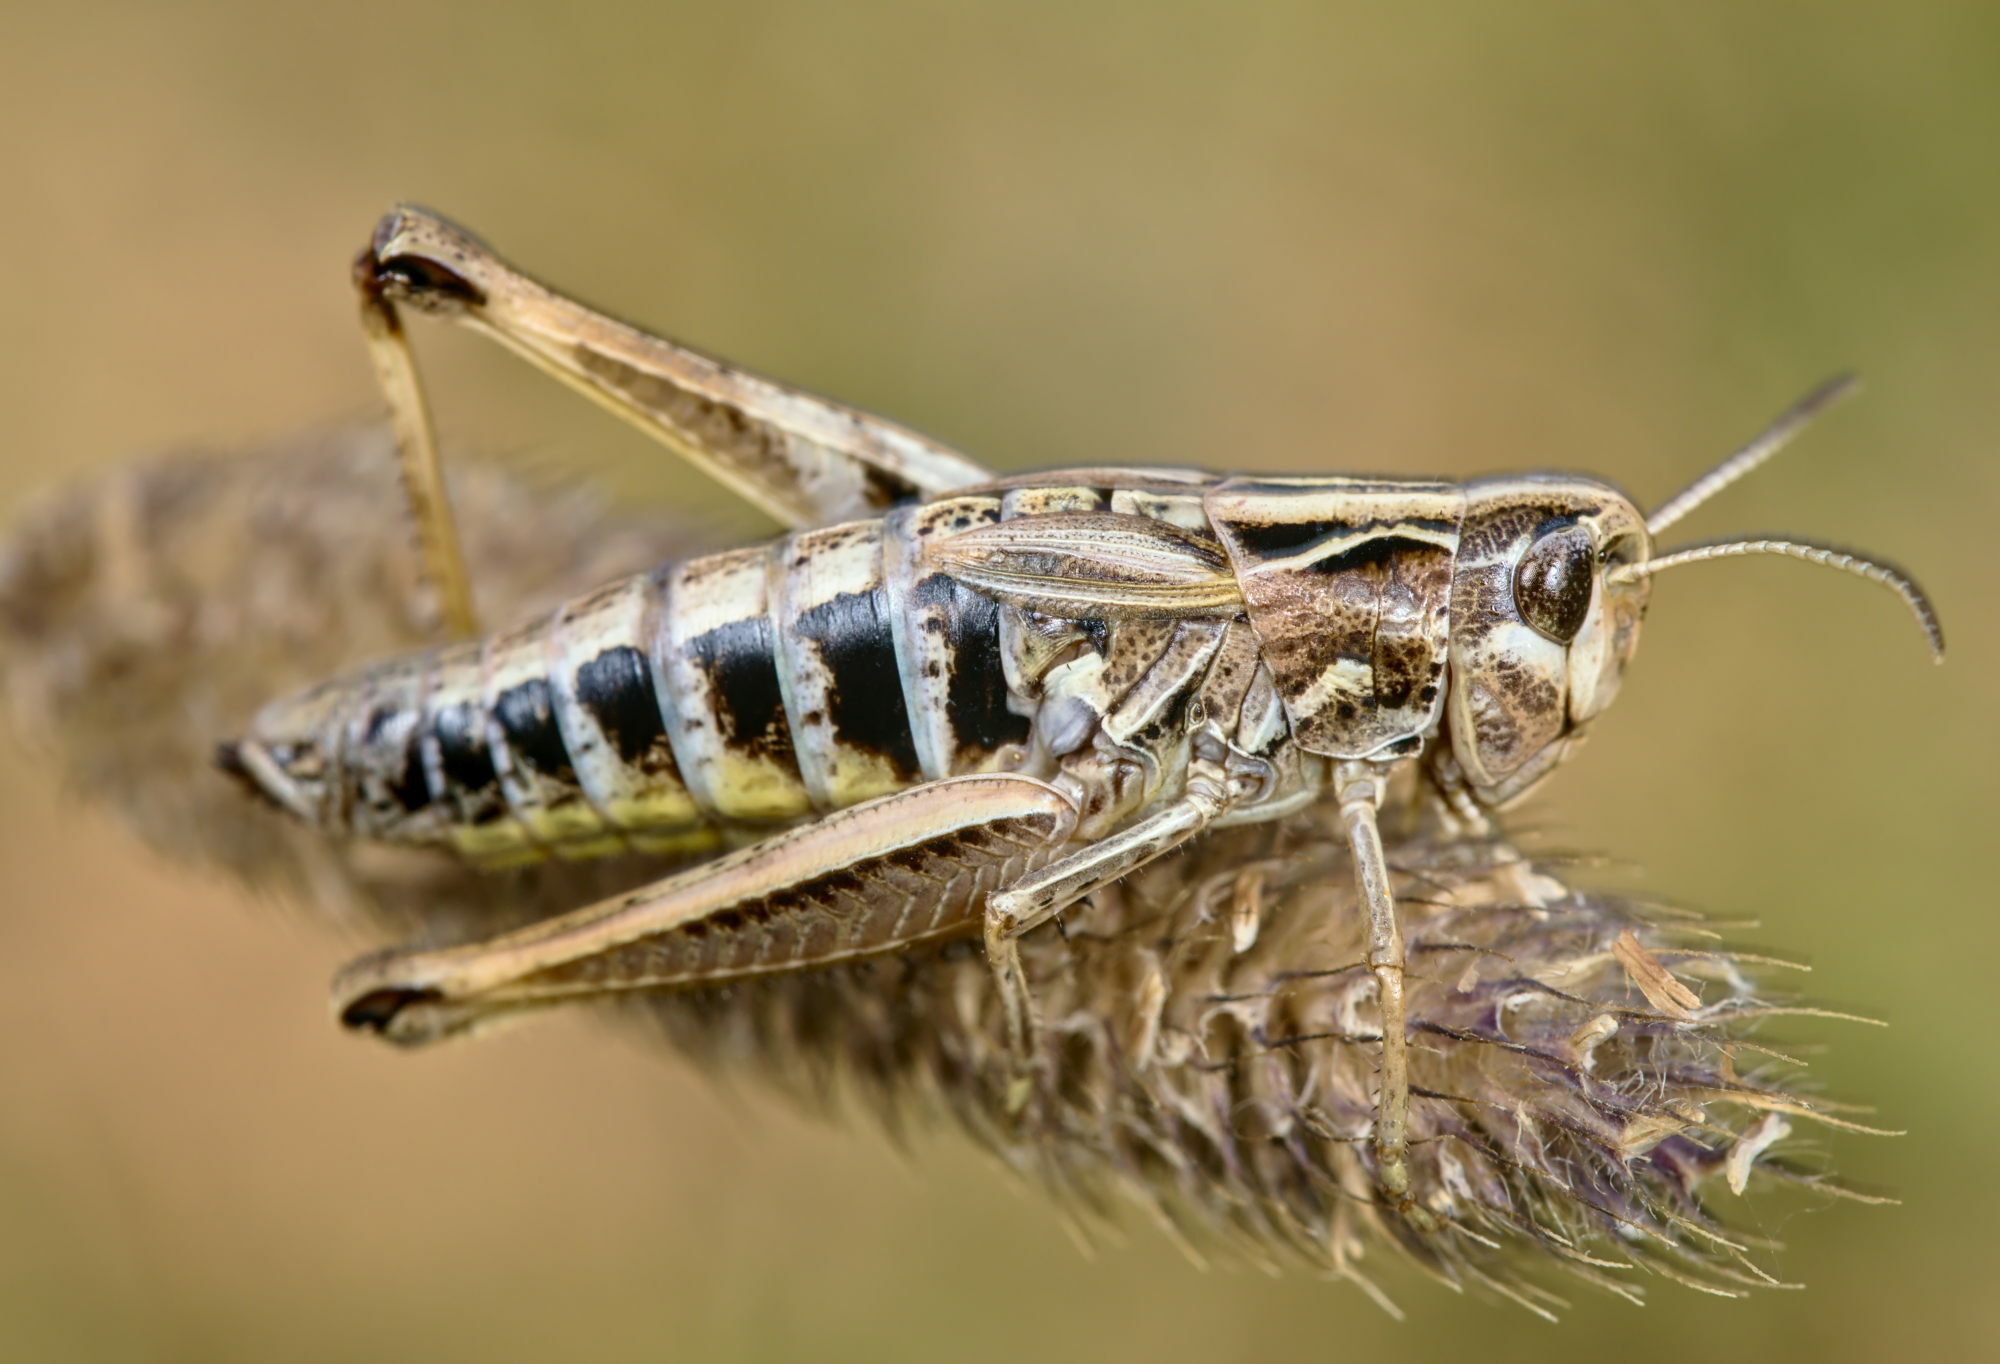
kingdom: Animalia
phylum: Arthropoda
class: Insecta
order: Orthoptera
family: Acrididae
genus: Stenobothrus
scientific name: Stenobothrus apenninus
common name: Apennine grasshopper
